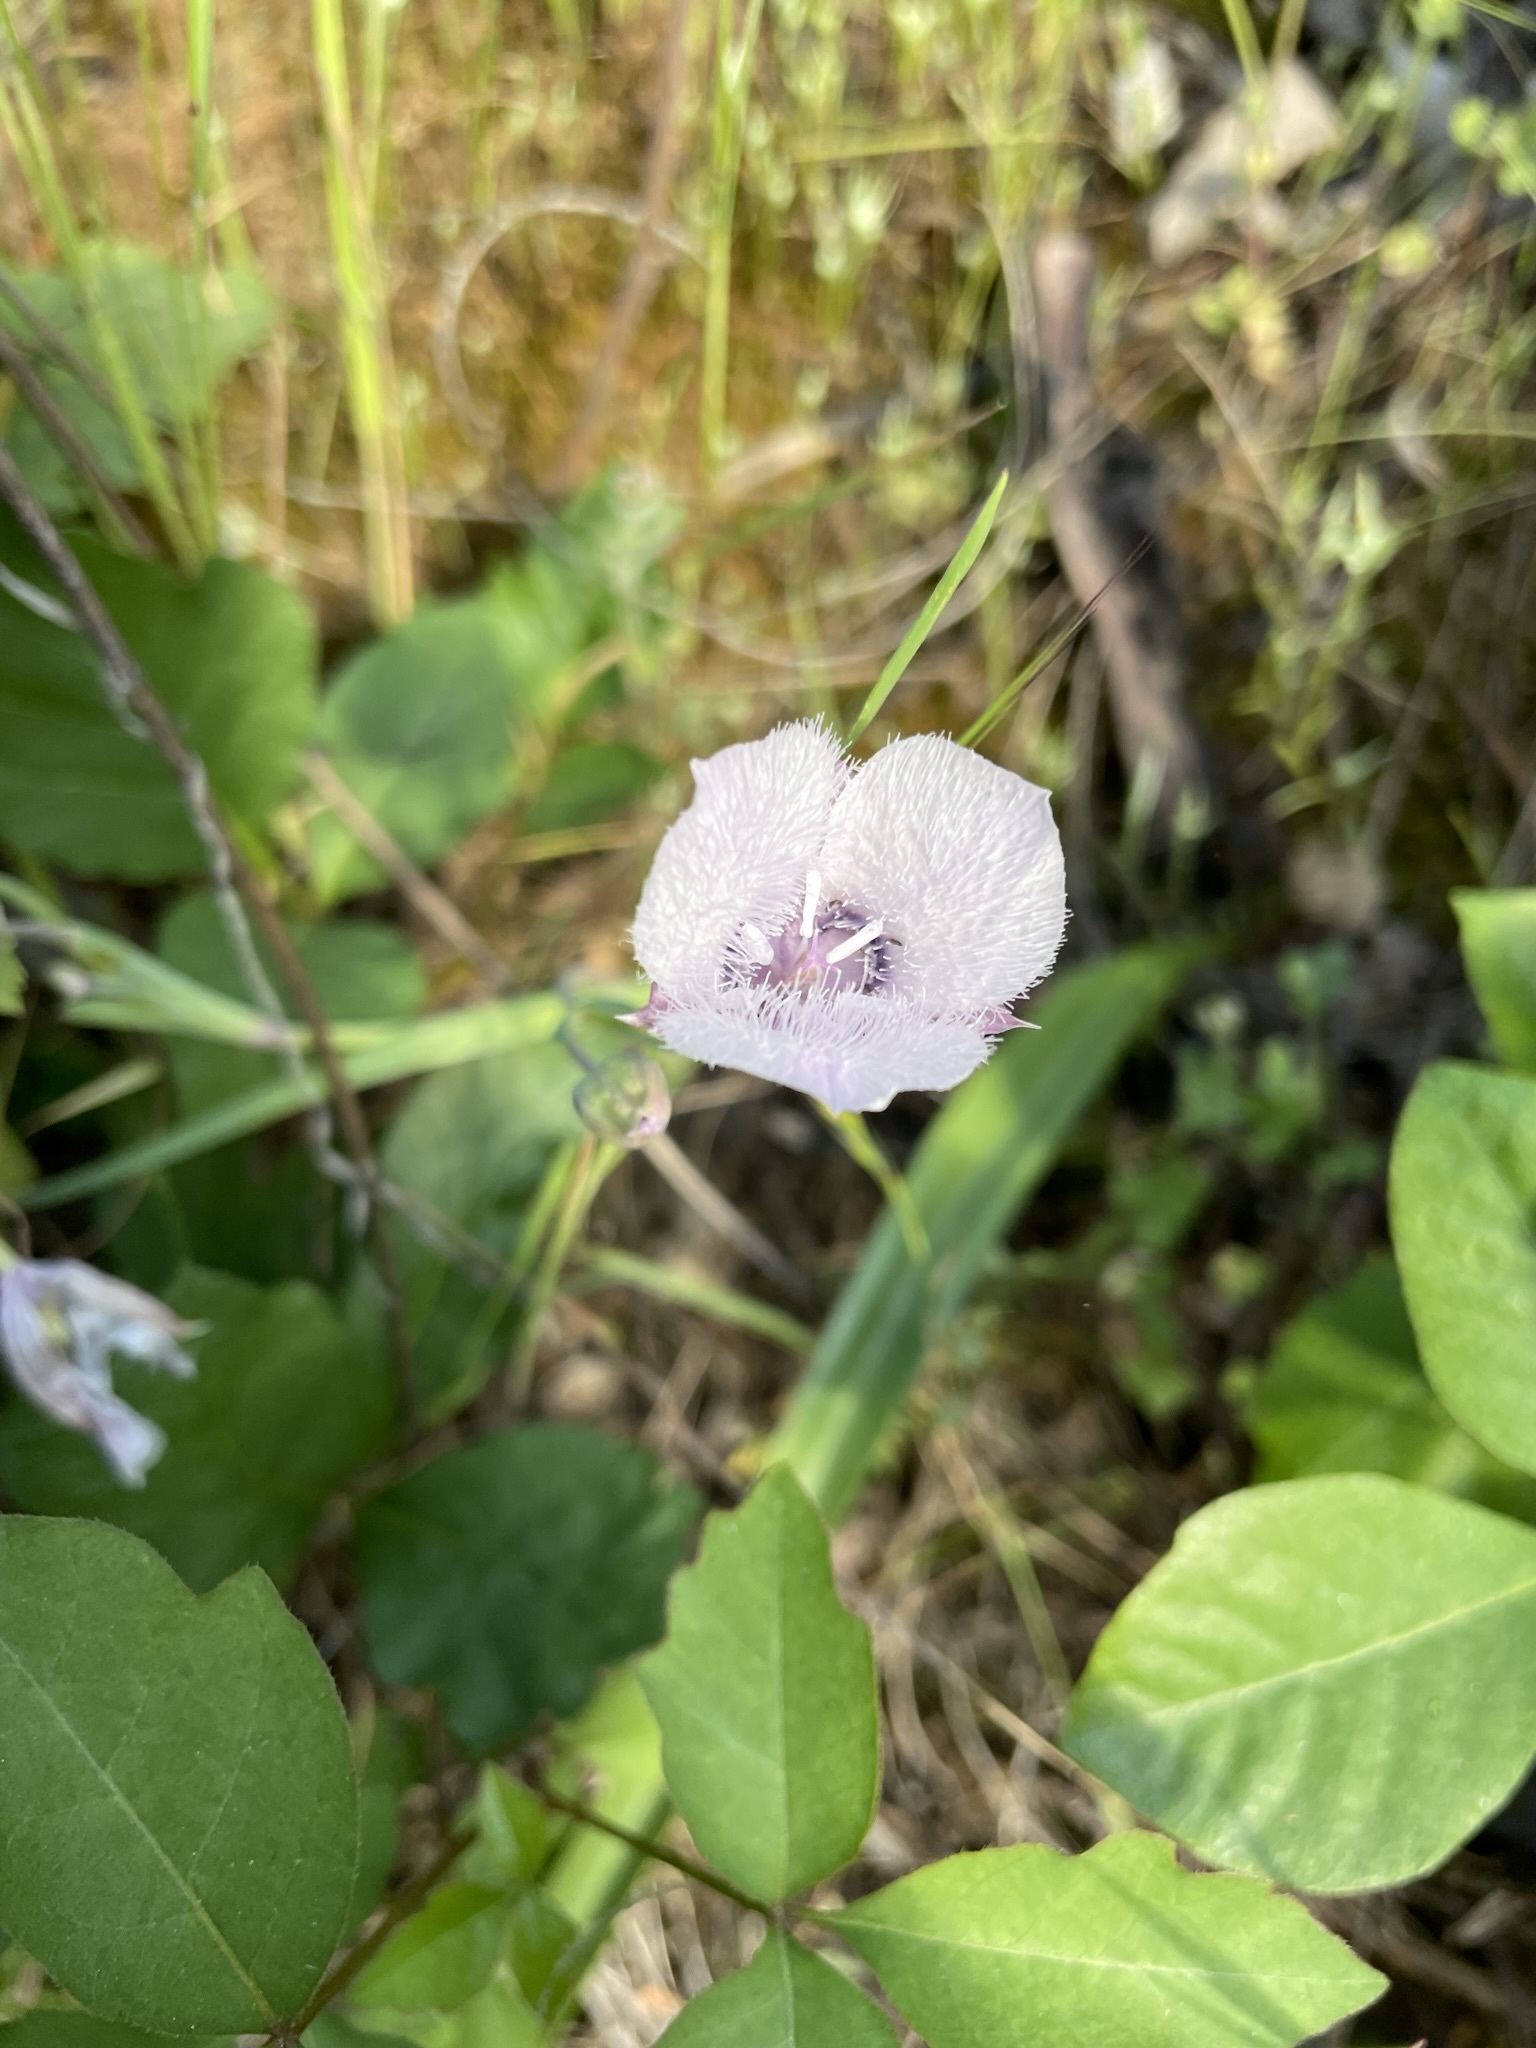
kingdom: Plantae
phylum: Tracheophyta
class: Liliopsida
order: Liliales
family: Liliaceae
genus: Calochortus
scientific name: Calochortus tolmiei
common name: Pussy-ears
